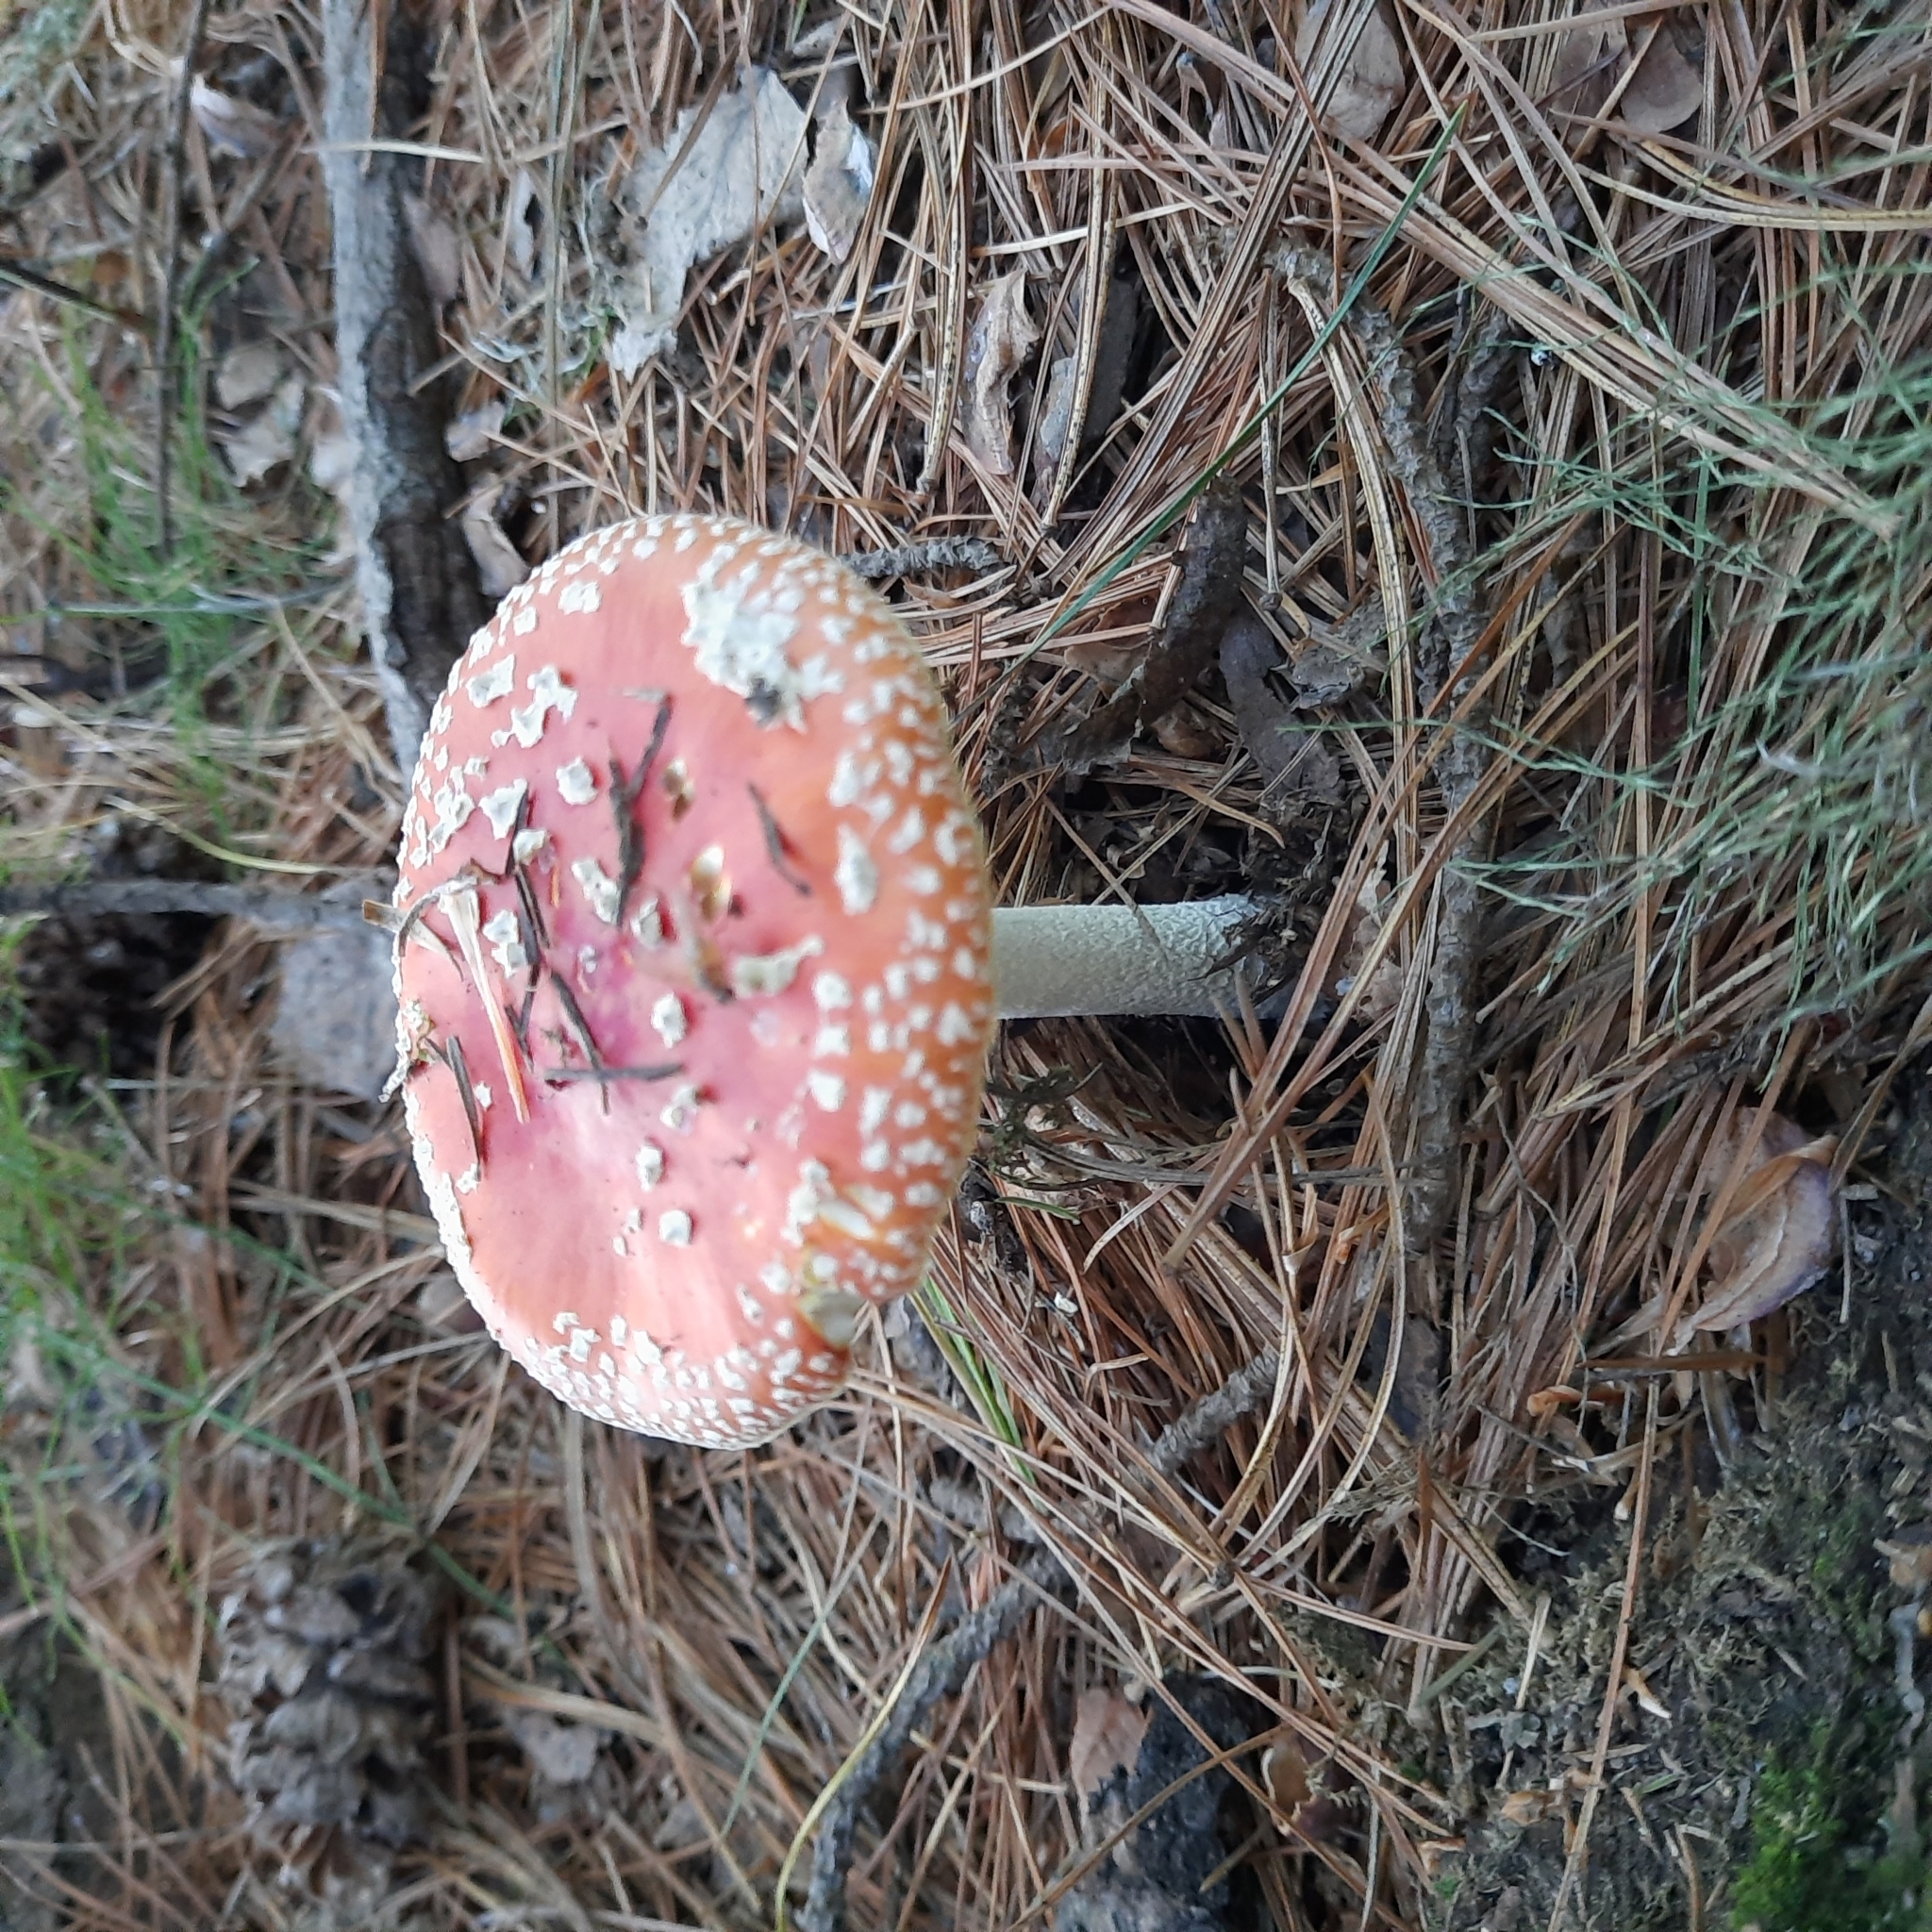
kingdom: Fungi
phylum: Basidiomycota
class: Agaricomycetes
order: Agaricales
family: Amanitaceae
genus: Amanita
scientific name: Amanita muscaria
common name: Fly agaric
